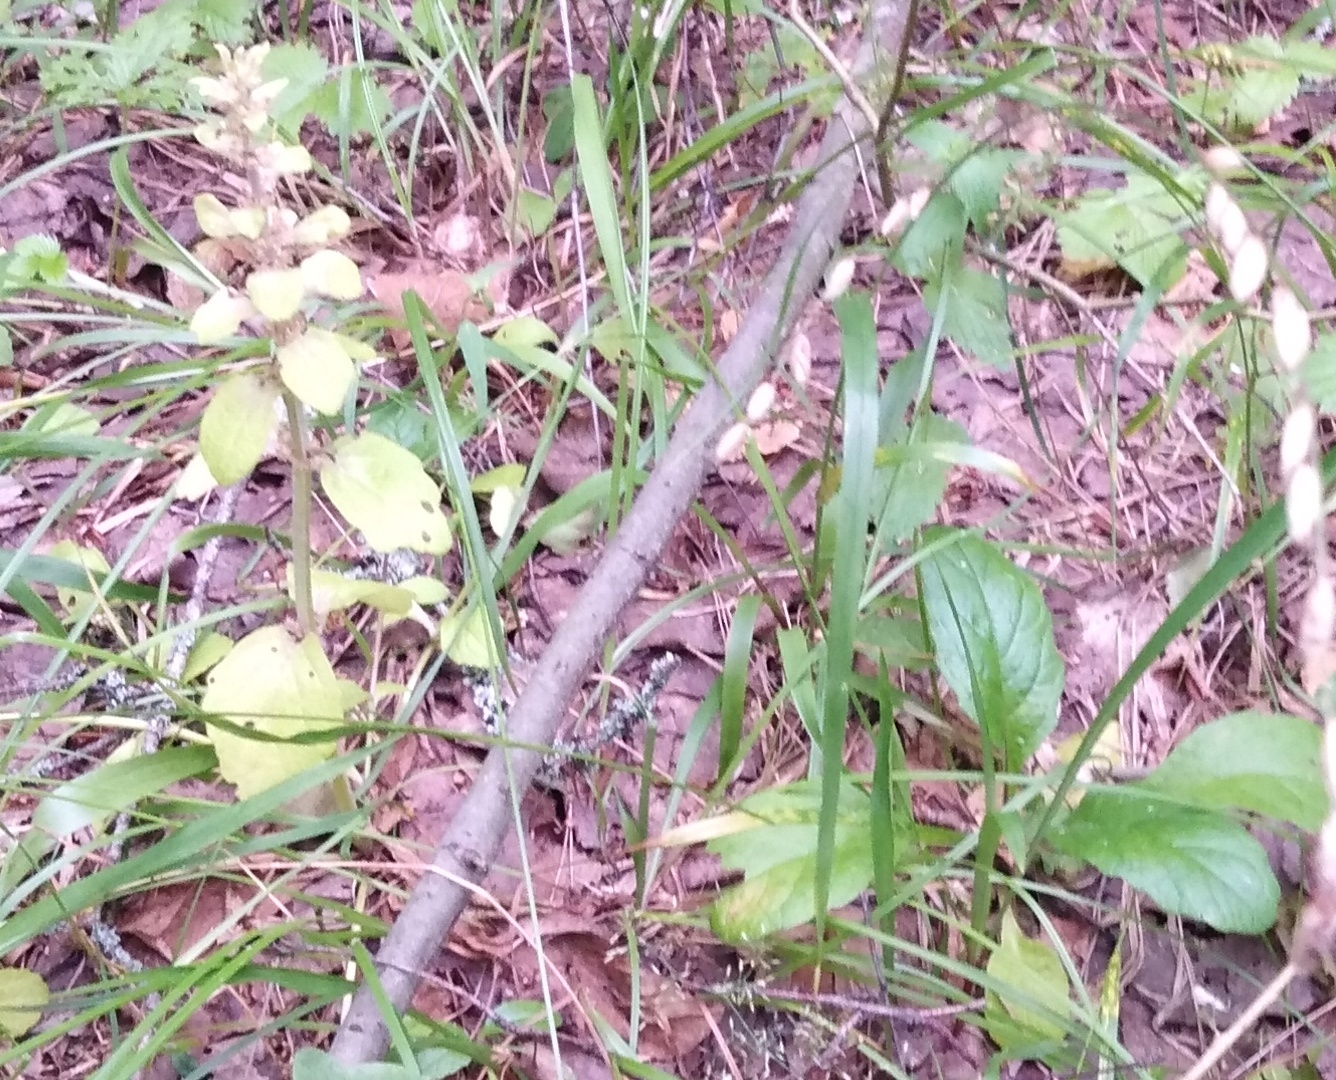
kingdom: Plantae
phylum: Tracheophyta
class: Magnoliopsida
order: Lamiales
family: Lamiaceae
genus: Ajuga
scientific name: Ajuga reptans
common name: Bugle
